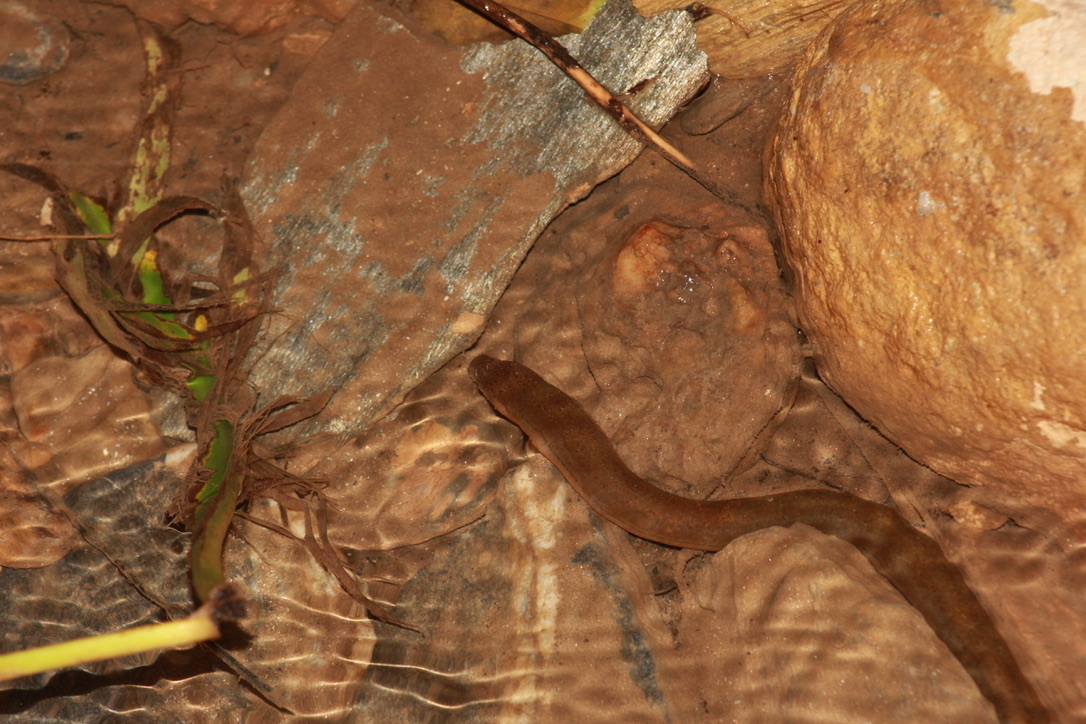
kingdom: Animalia
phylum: Chordata
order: Synbranchiformes
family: Synbranchidae
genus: Synbranchus
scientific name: Synbranchus marmoratus
